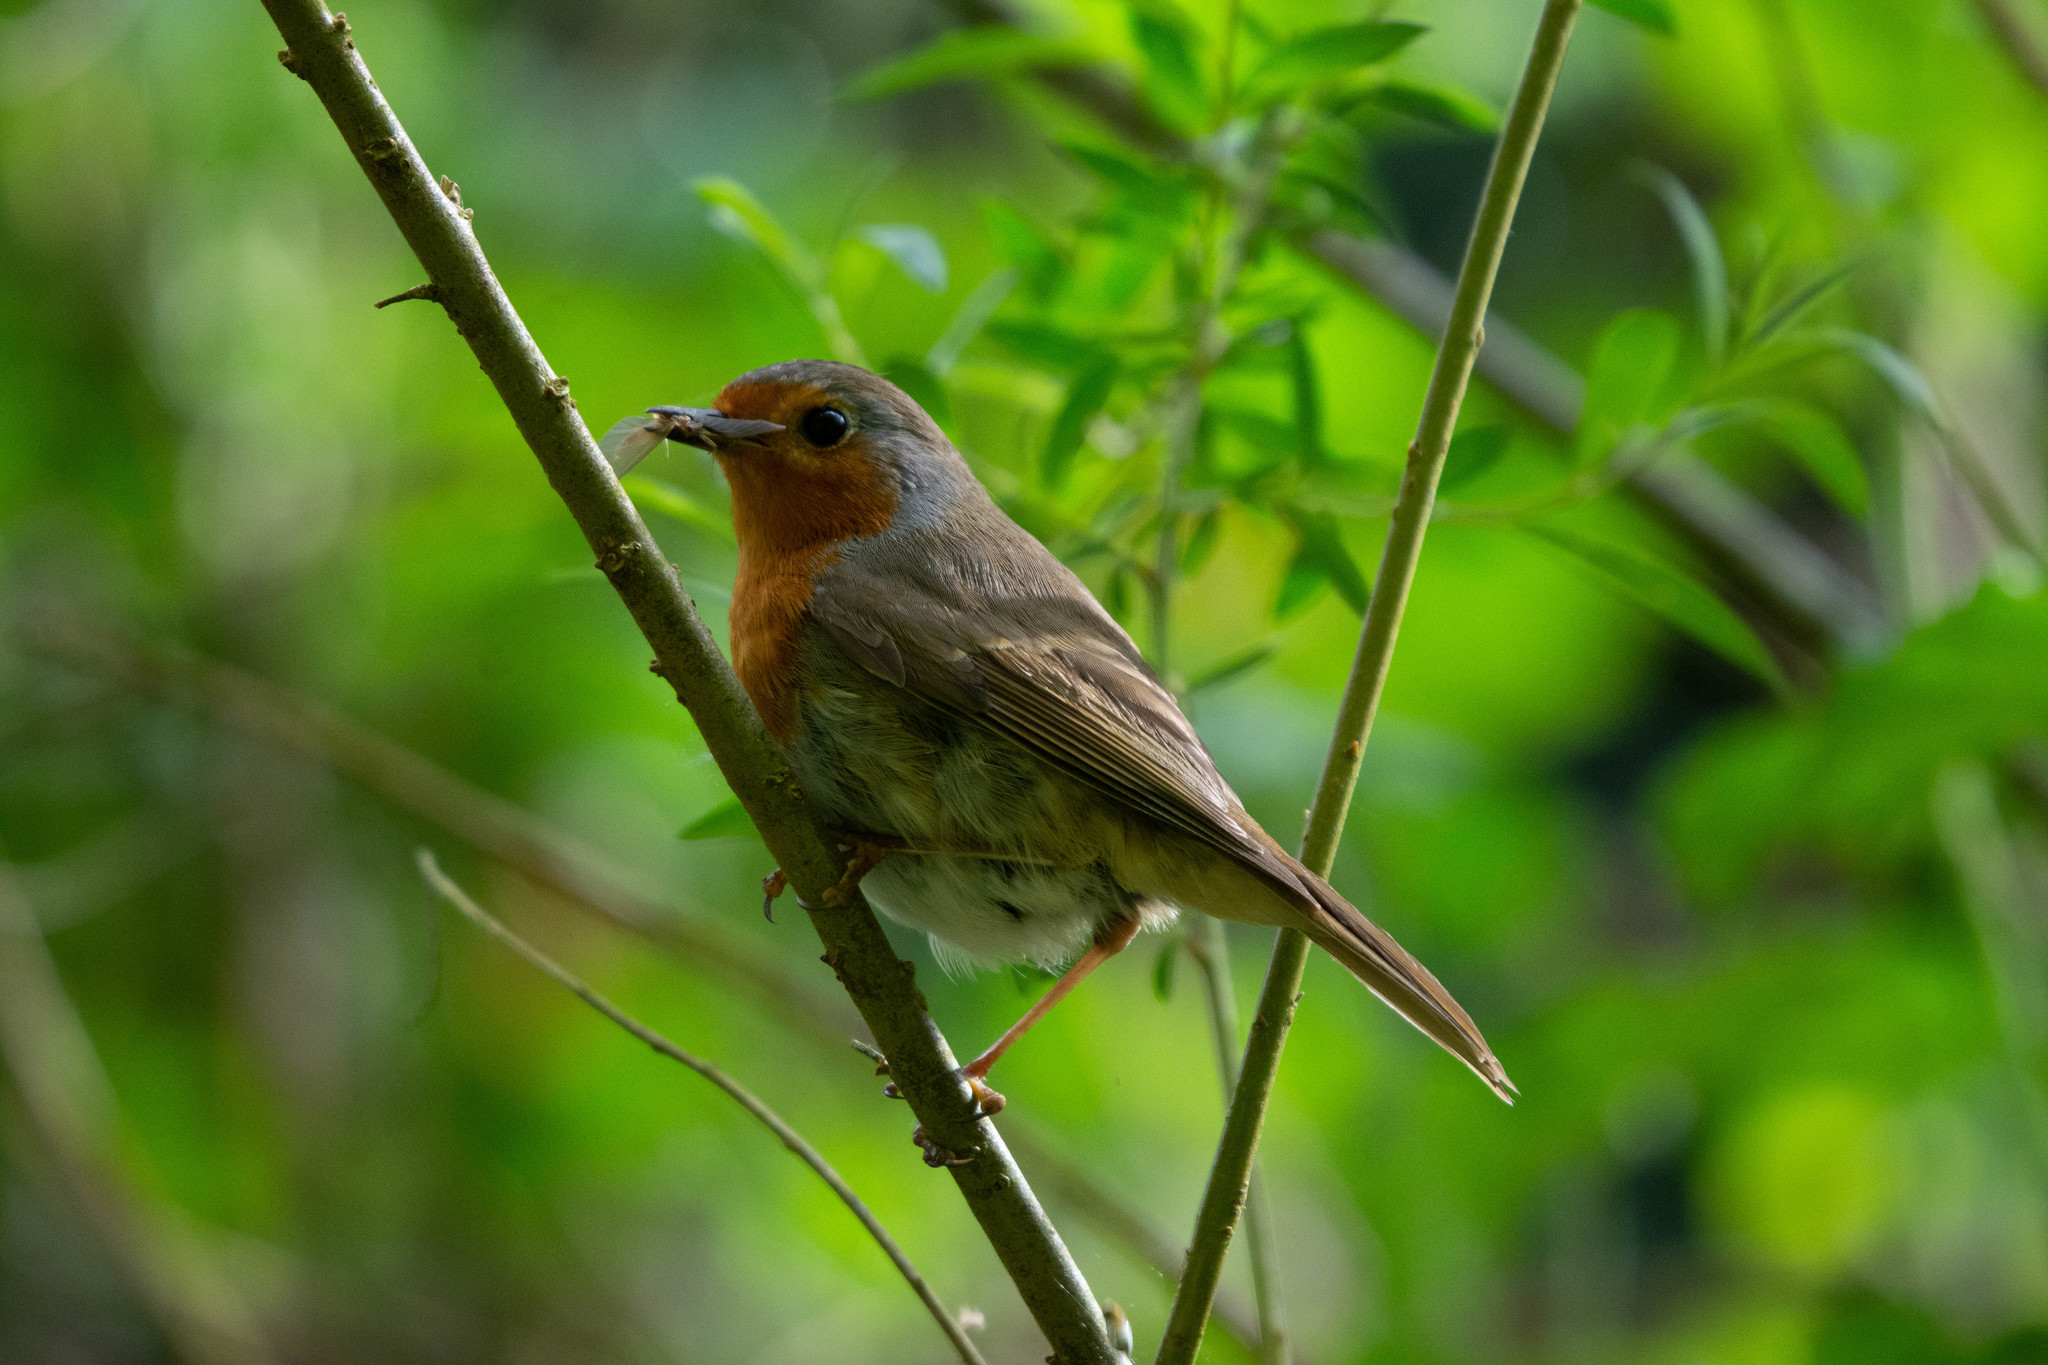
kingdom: Animalia
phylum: Chordata
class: Aves
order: Passeriformes
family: Muscicapidae
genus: Erithacus
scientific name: Erithacus rubecula
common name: European robin
